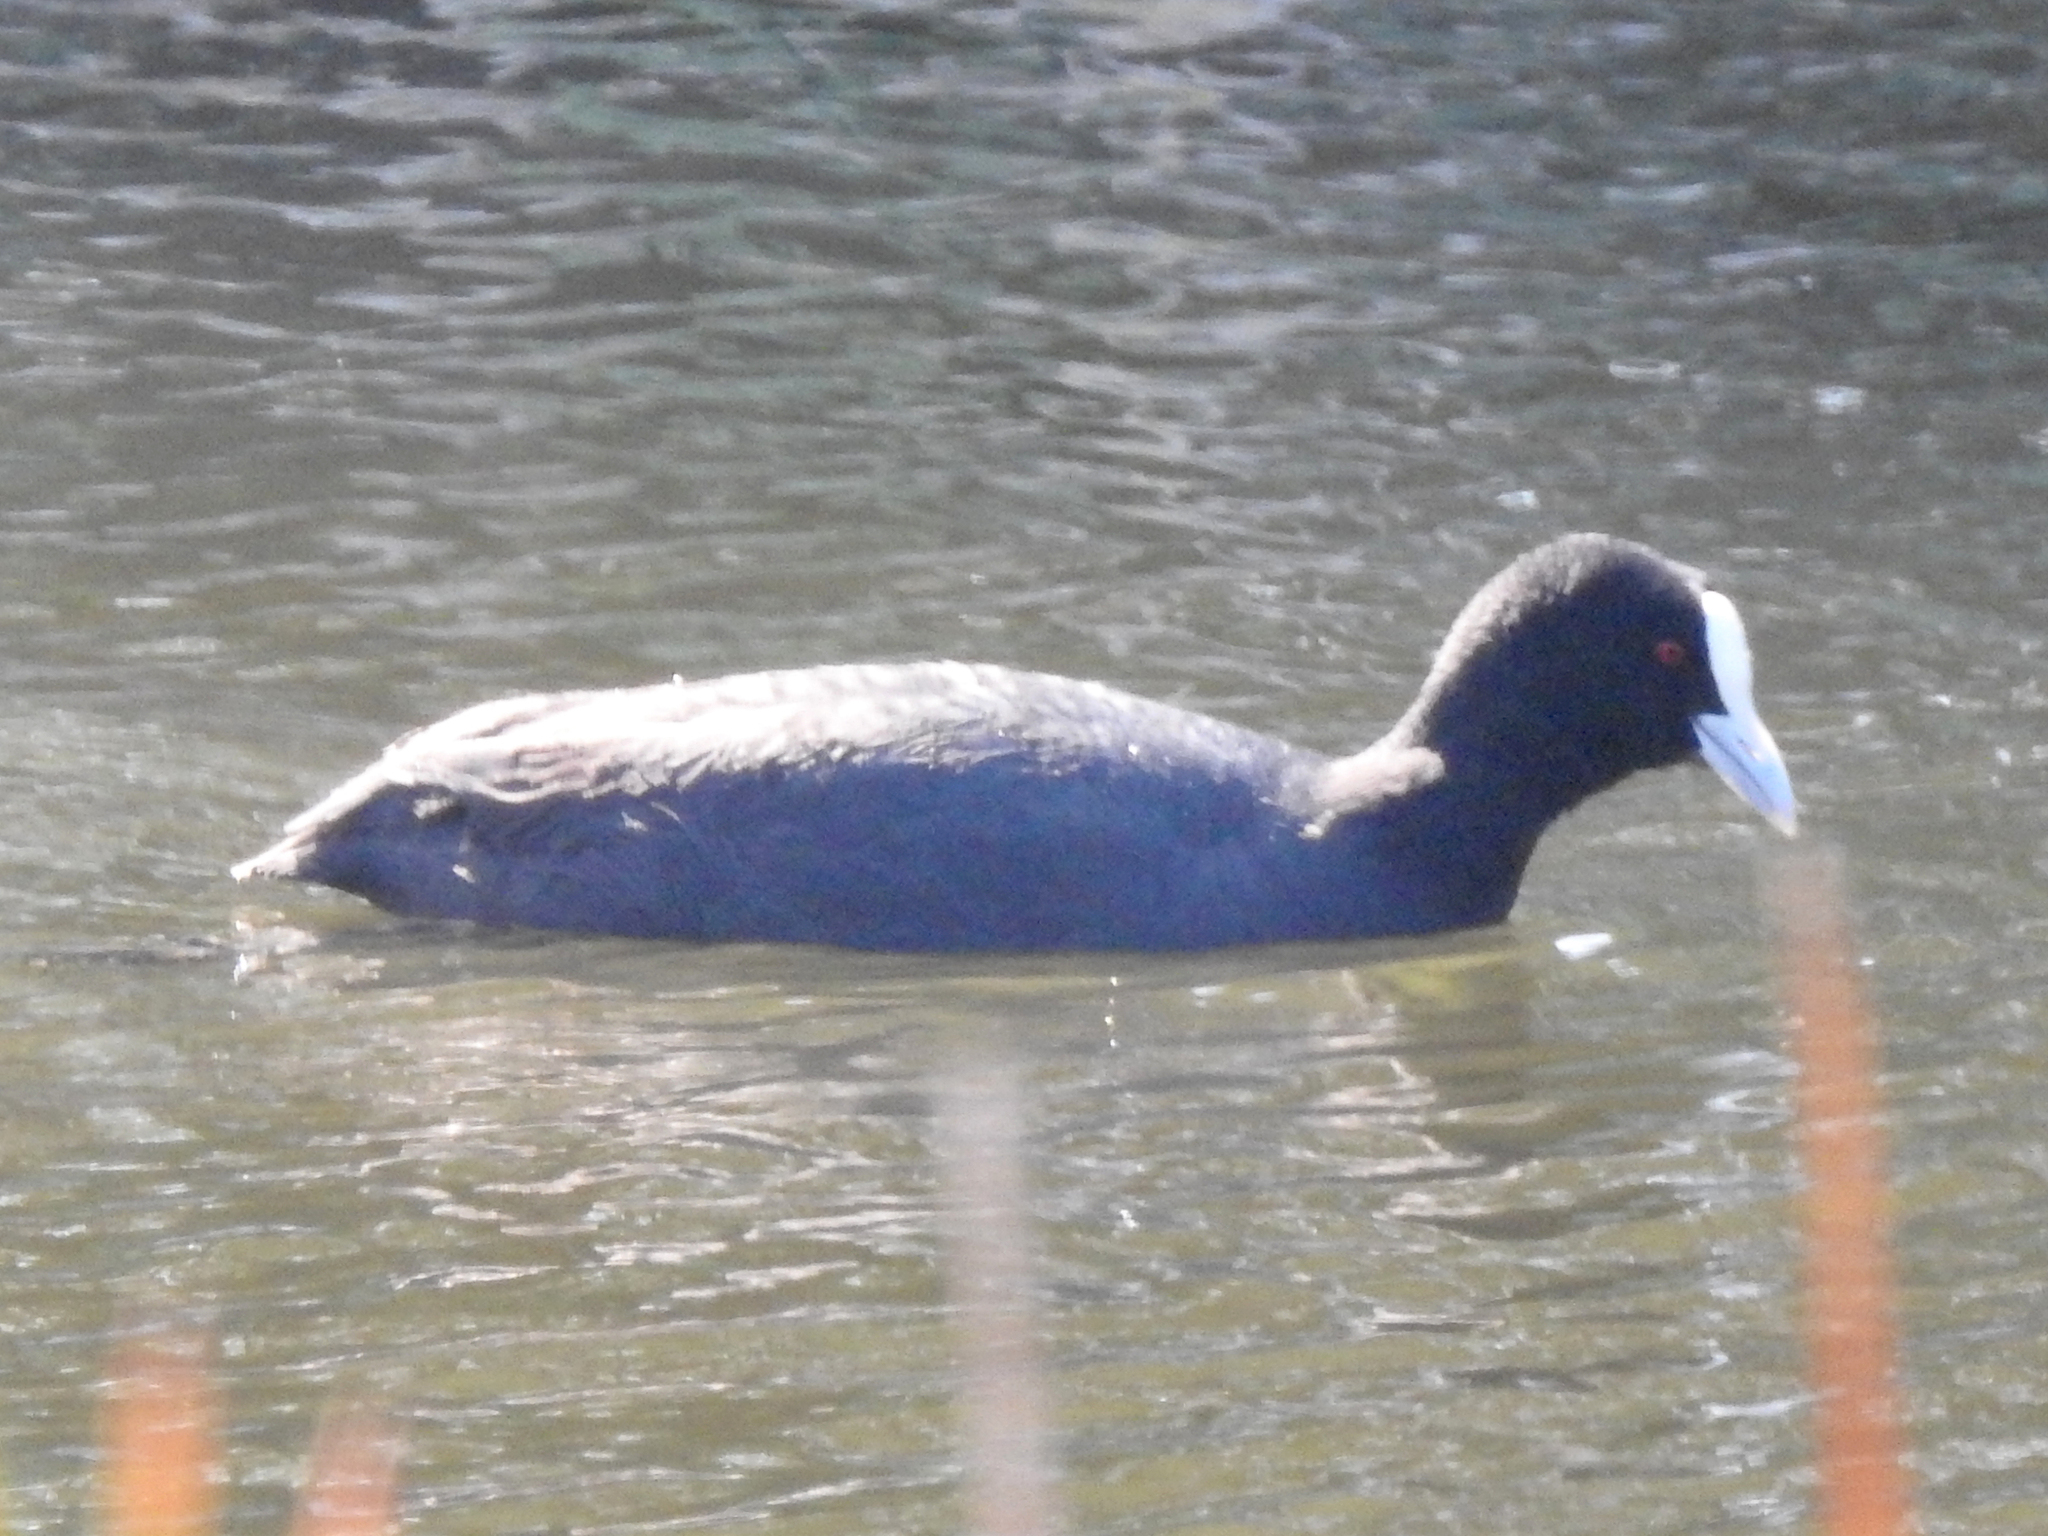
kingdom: Animalia
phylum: Chordata
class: Aves
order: Gruiformes
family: Rallidae
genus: Fulica
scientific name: Fulica atra
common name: Eurasian coot
